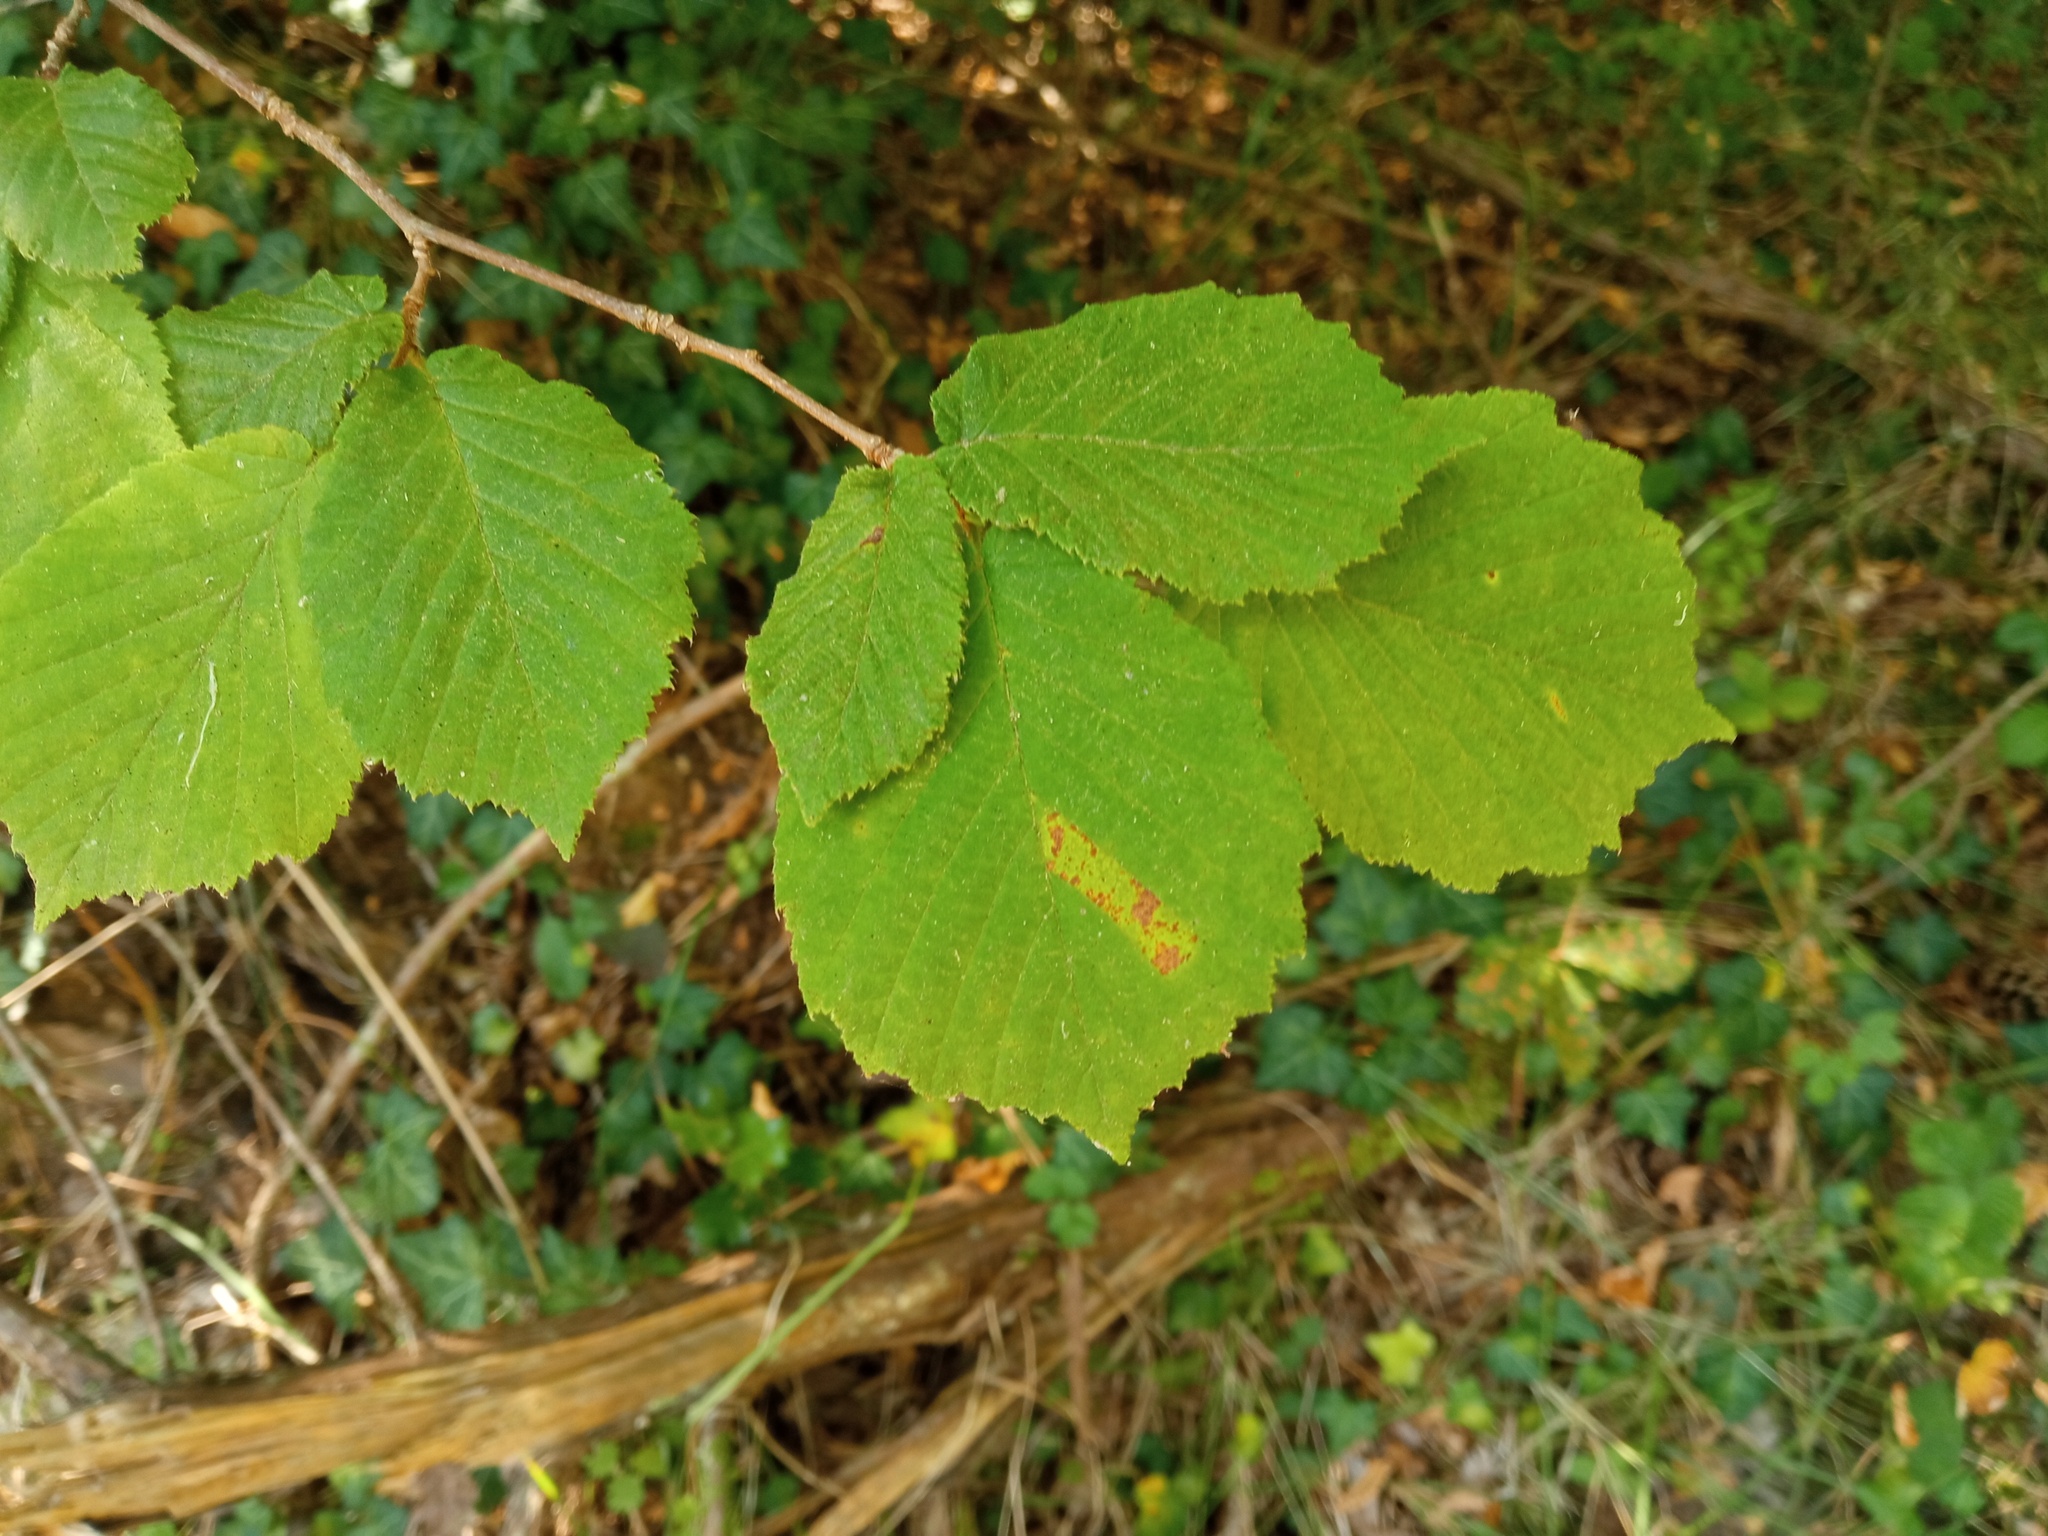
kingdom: Plantae
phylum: Tracheophyta
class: Magnoliopsida
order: Fagales
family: Betulaceae
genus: Corylus
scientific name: Corylus avellana
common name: European hazel
